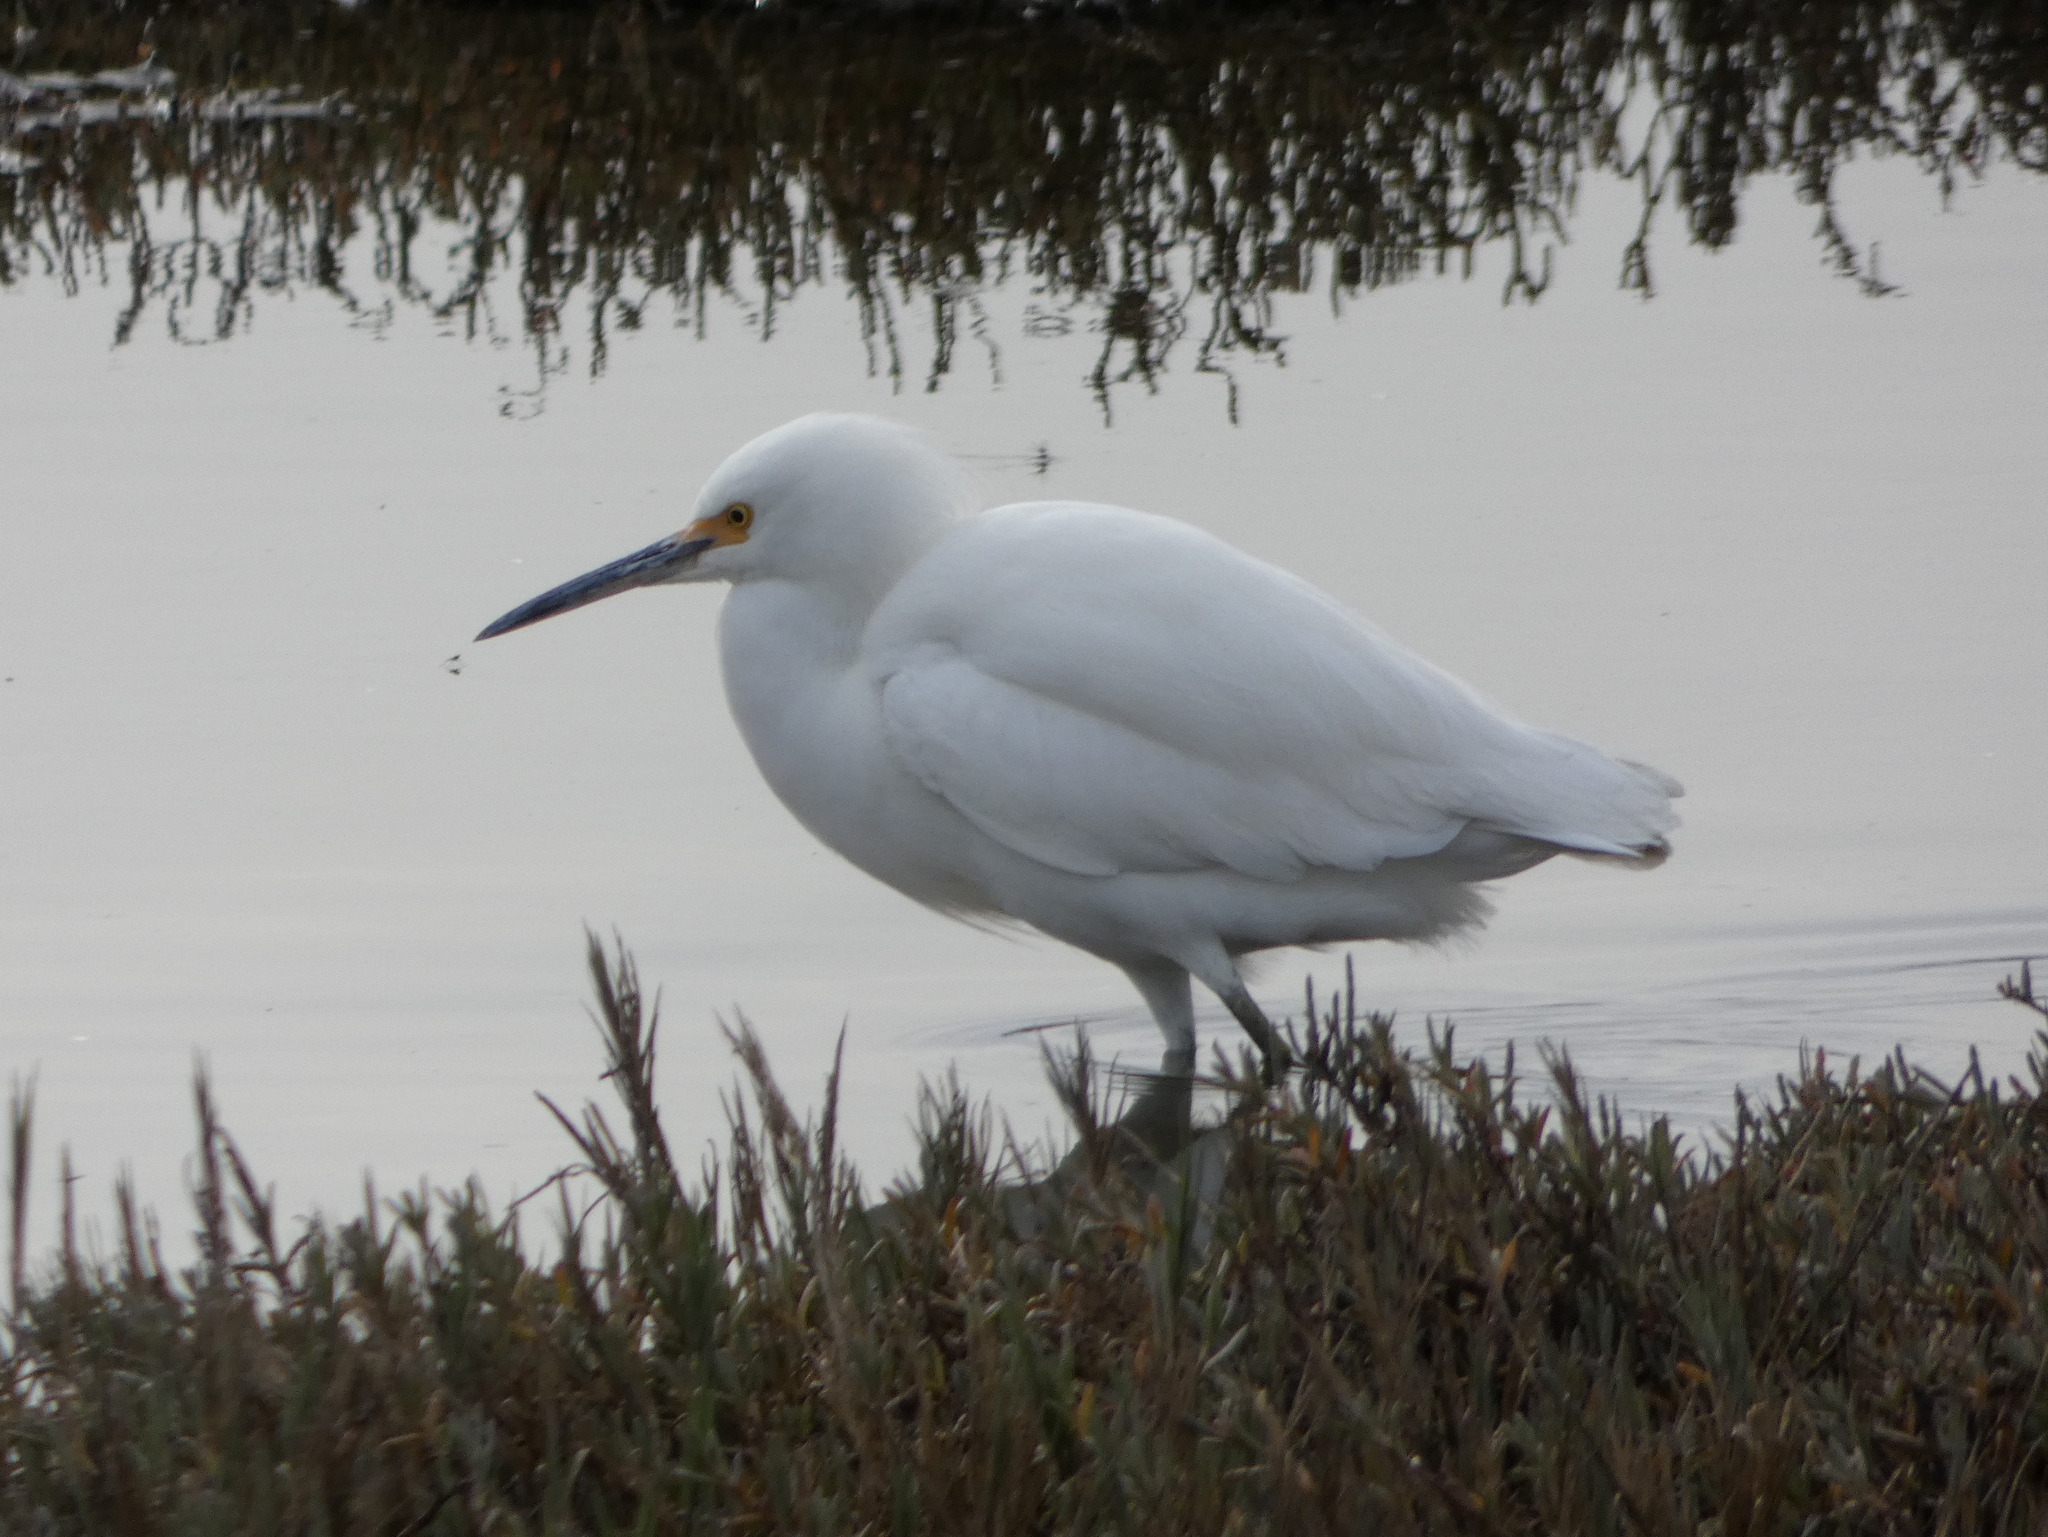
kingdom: Animalia
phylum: Chordata
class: Aves
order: Pelecaniformes
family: Ardeidae
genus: Egretta
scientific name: Egretta thula
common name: Snowy egret
